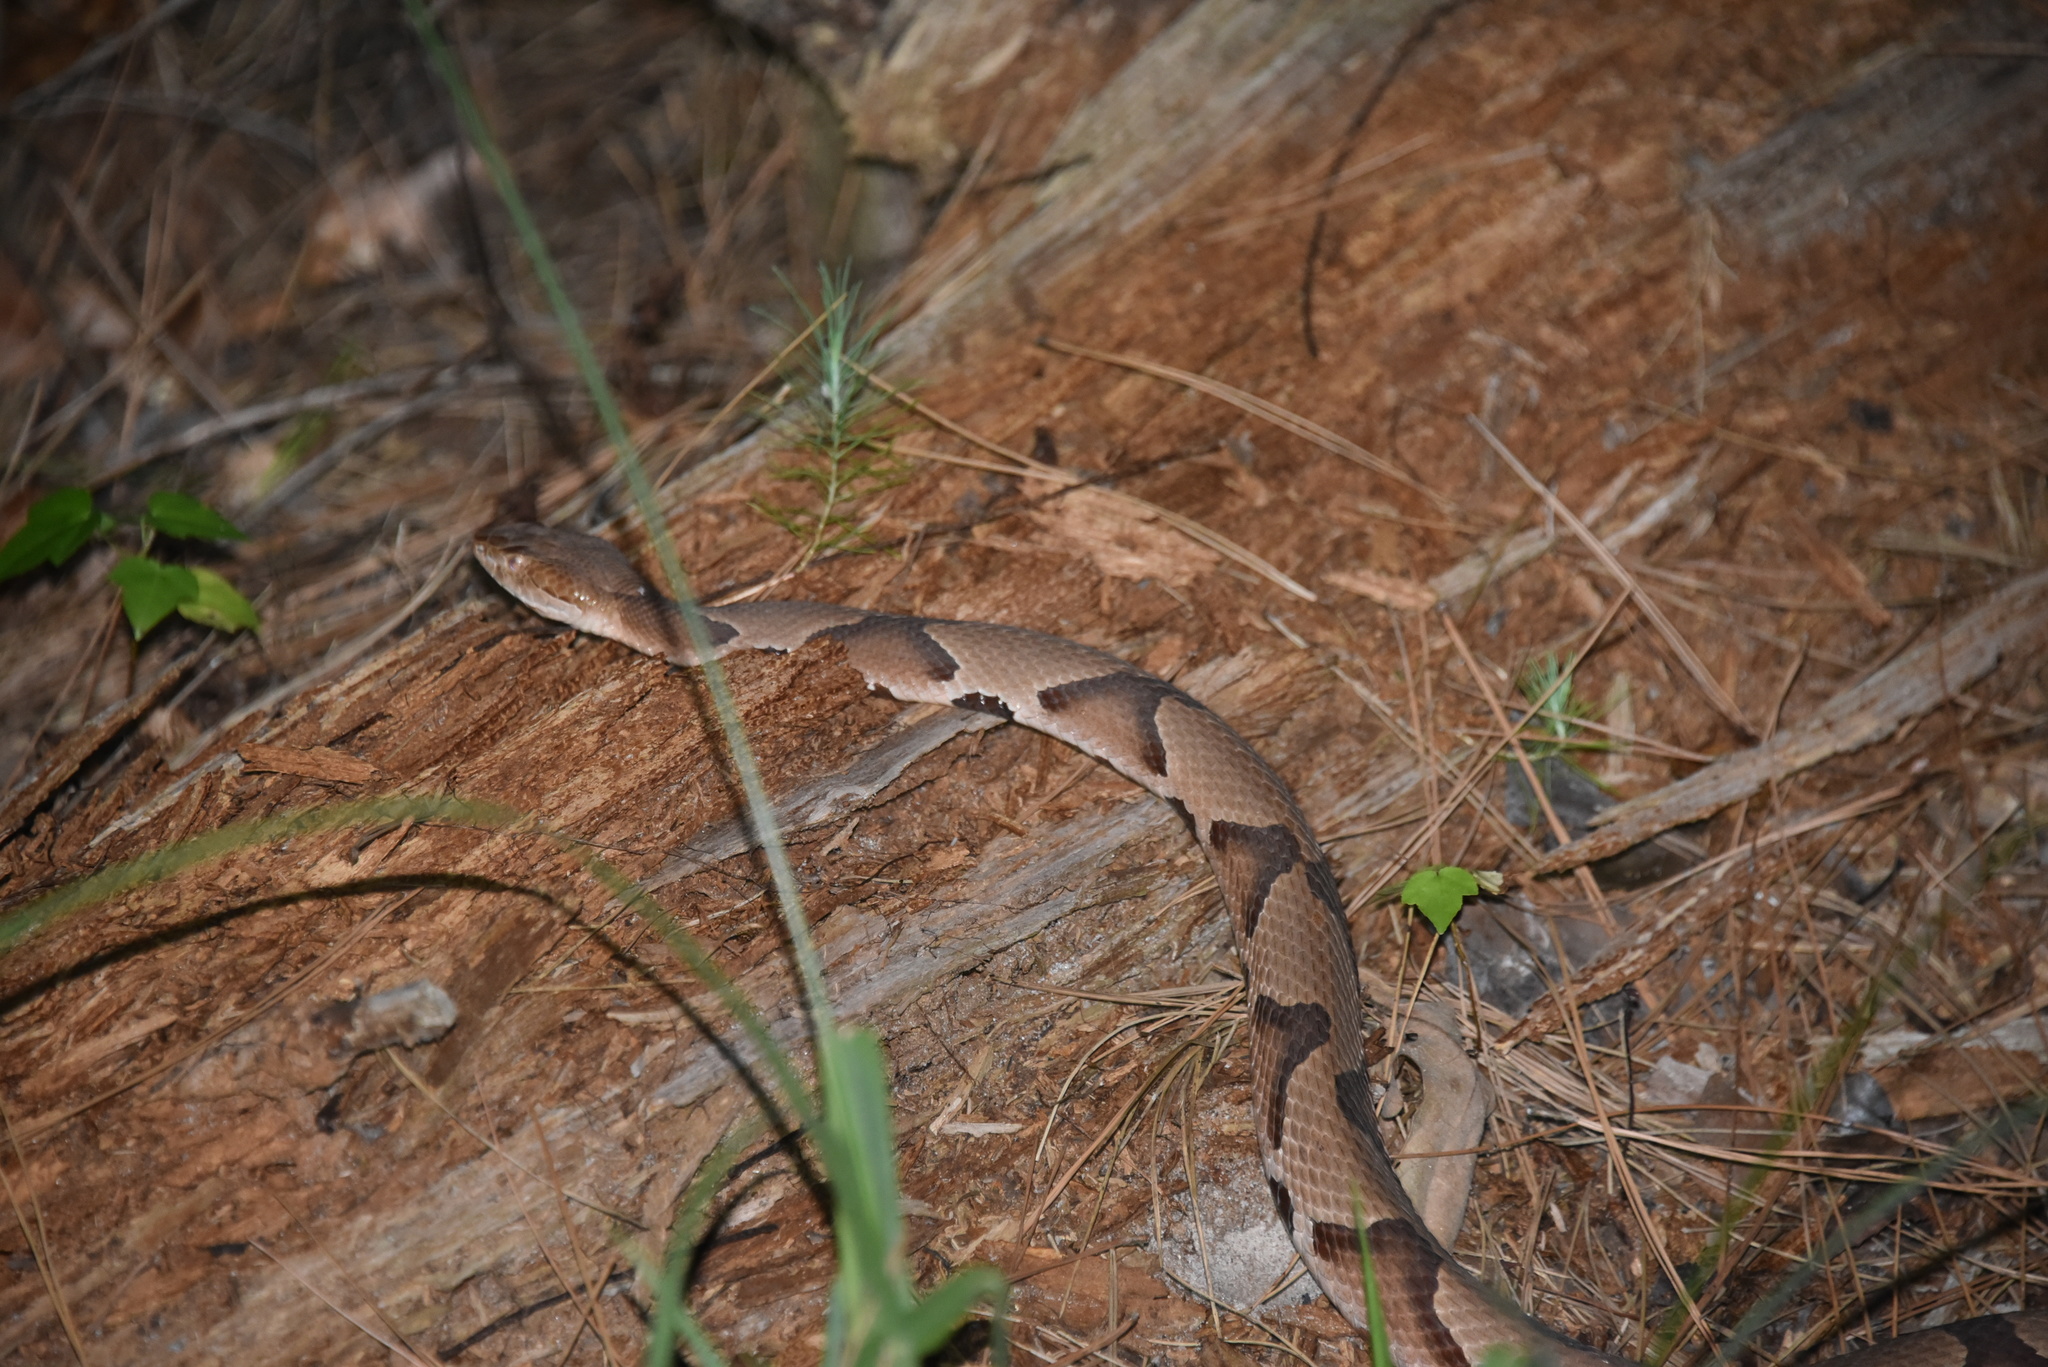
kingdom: Animalia
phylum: Chordata
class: Squamata
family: Viperidae
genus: Agkistrodon
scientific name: Agkistrodon contortrix
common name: Northern copperhead
